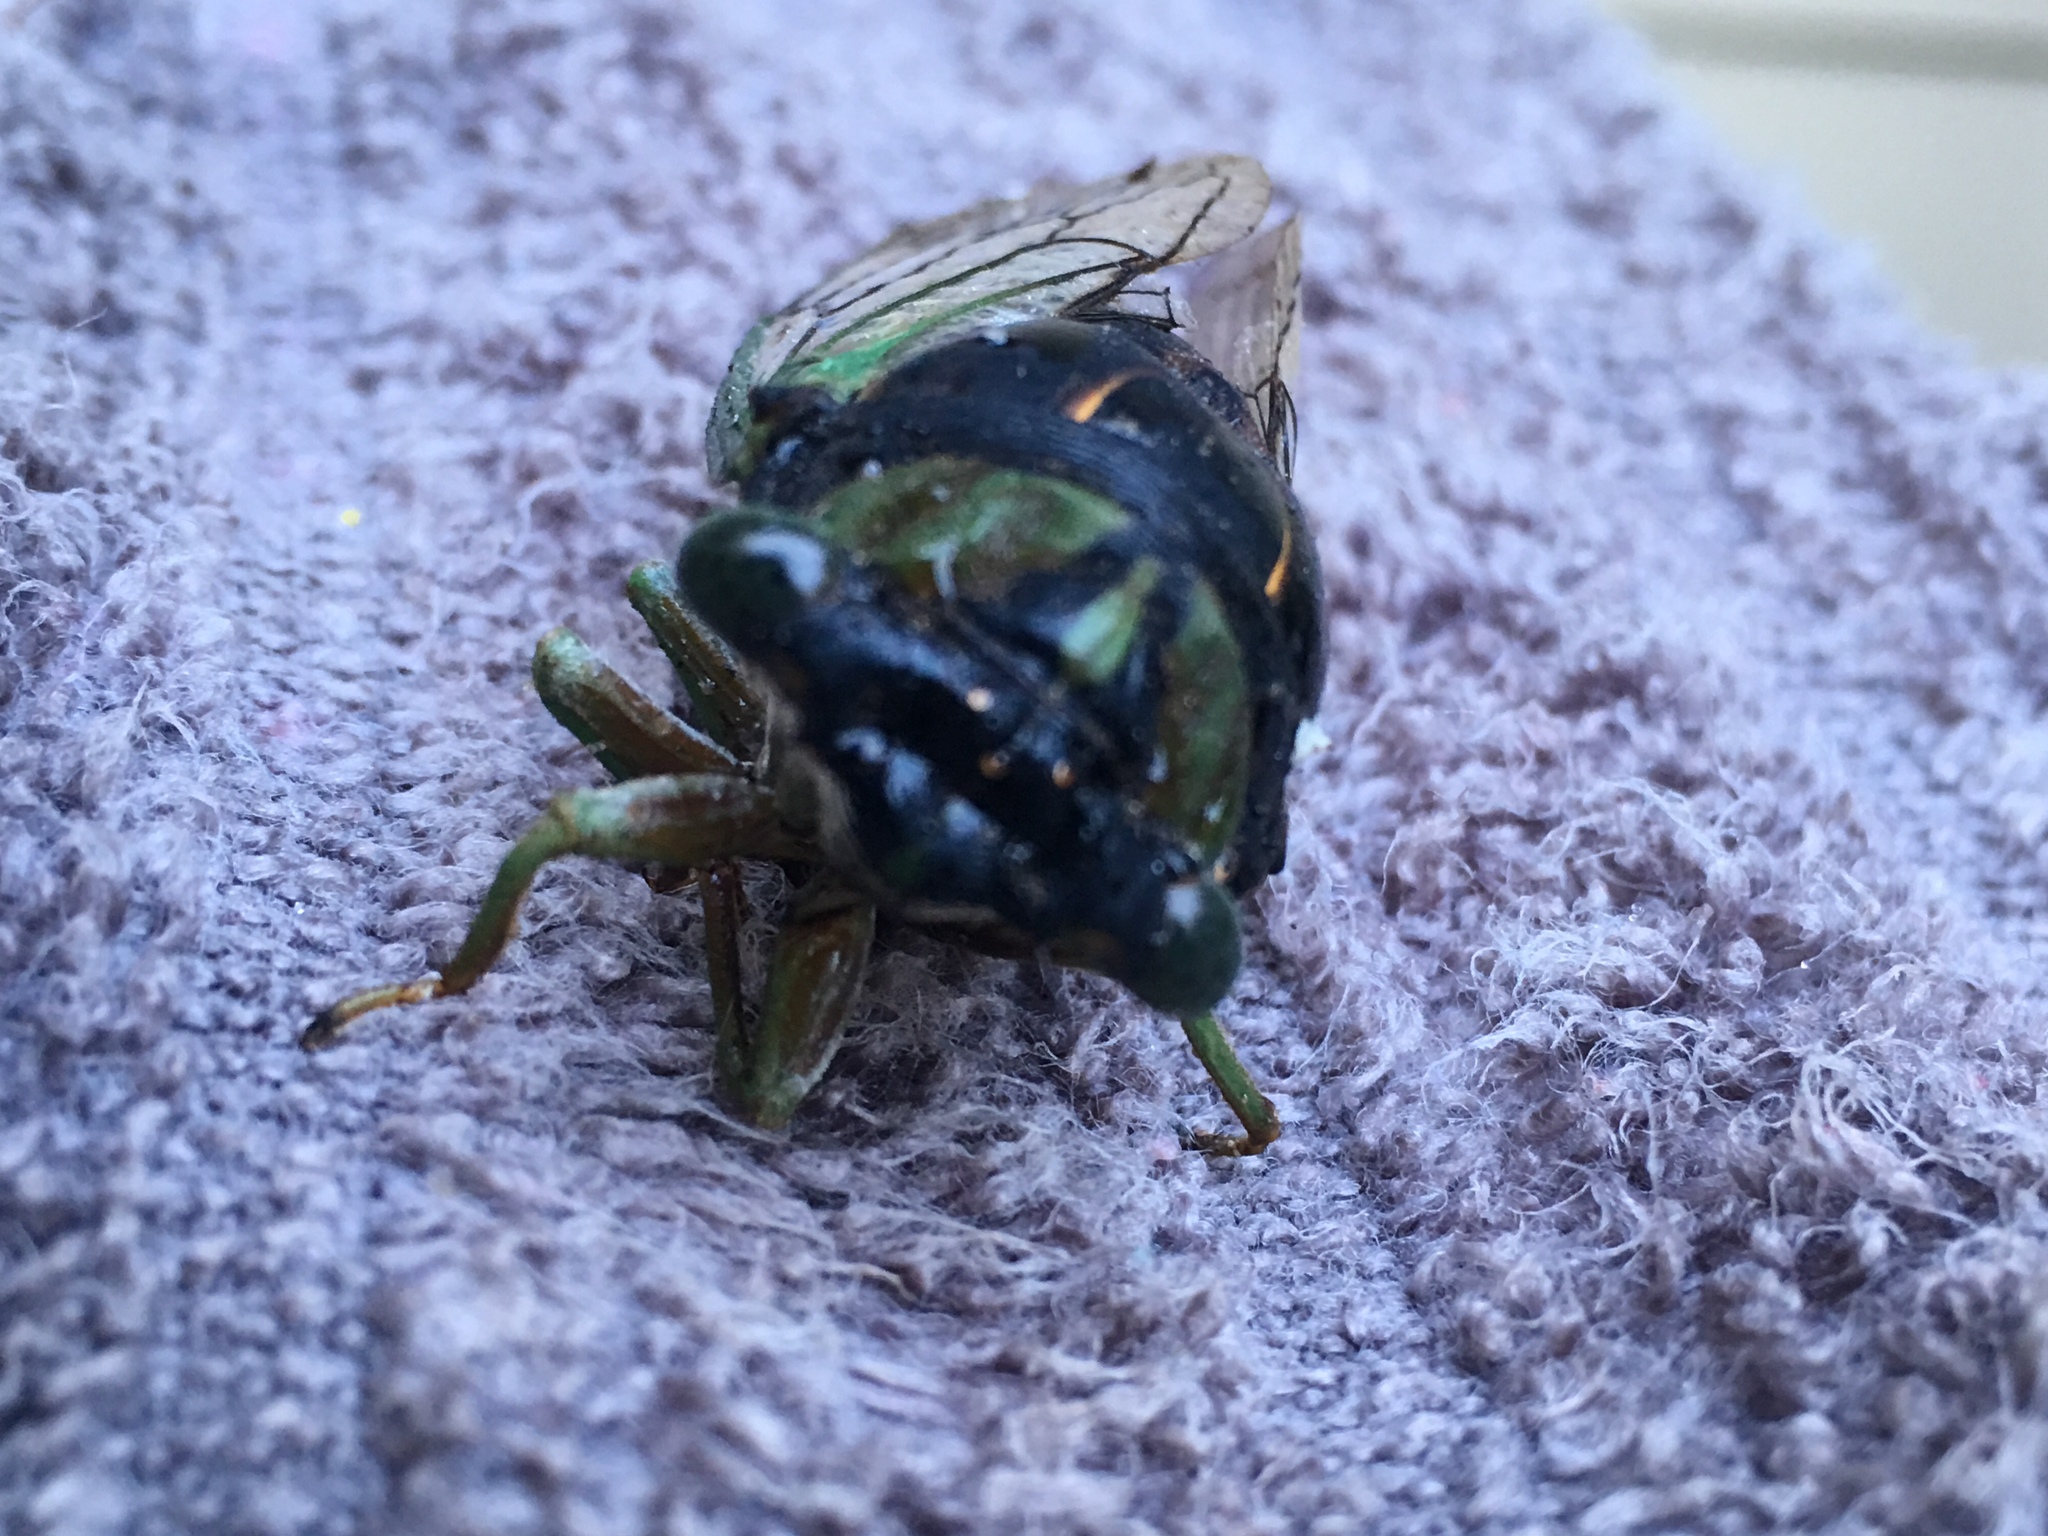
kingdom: Animalia
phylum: Arthropoda
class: Insecta
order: Hemiptera
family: Cicadidae
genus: Neotibicen
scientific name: Neotibicen tibicen
